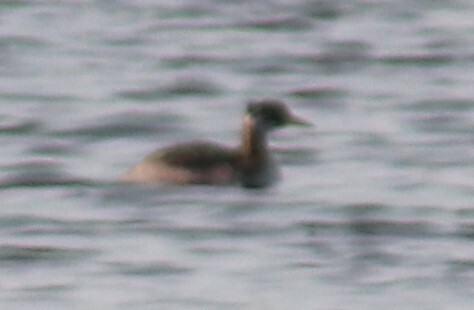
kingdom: Animalia
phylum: Chordata
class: Aves
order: Podicipediformes
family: Podicipedidae
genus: Podiceps
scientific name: Podiceps grisegena
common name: Red-necked grebe
